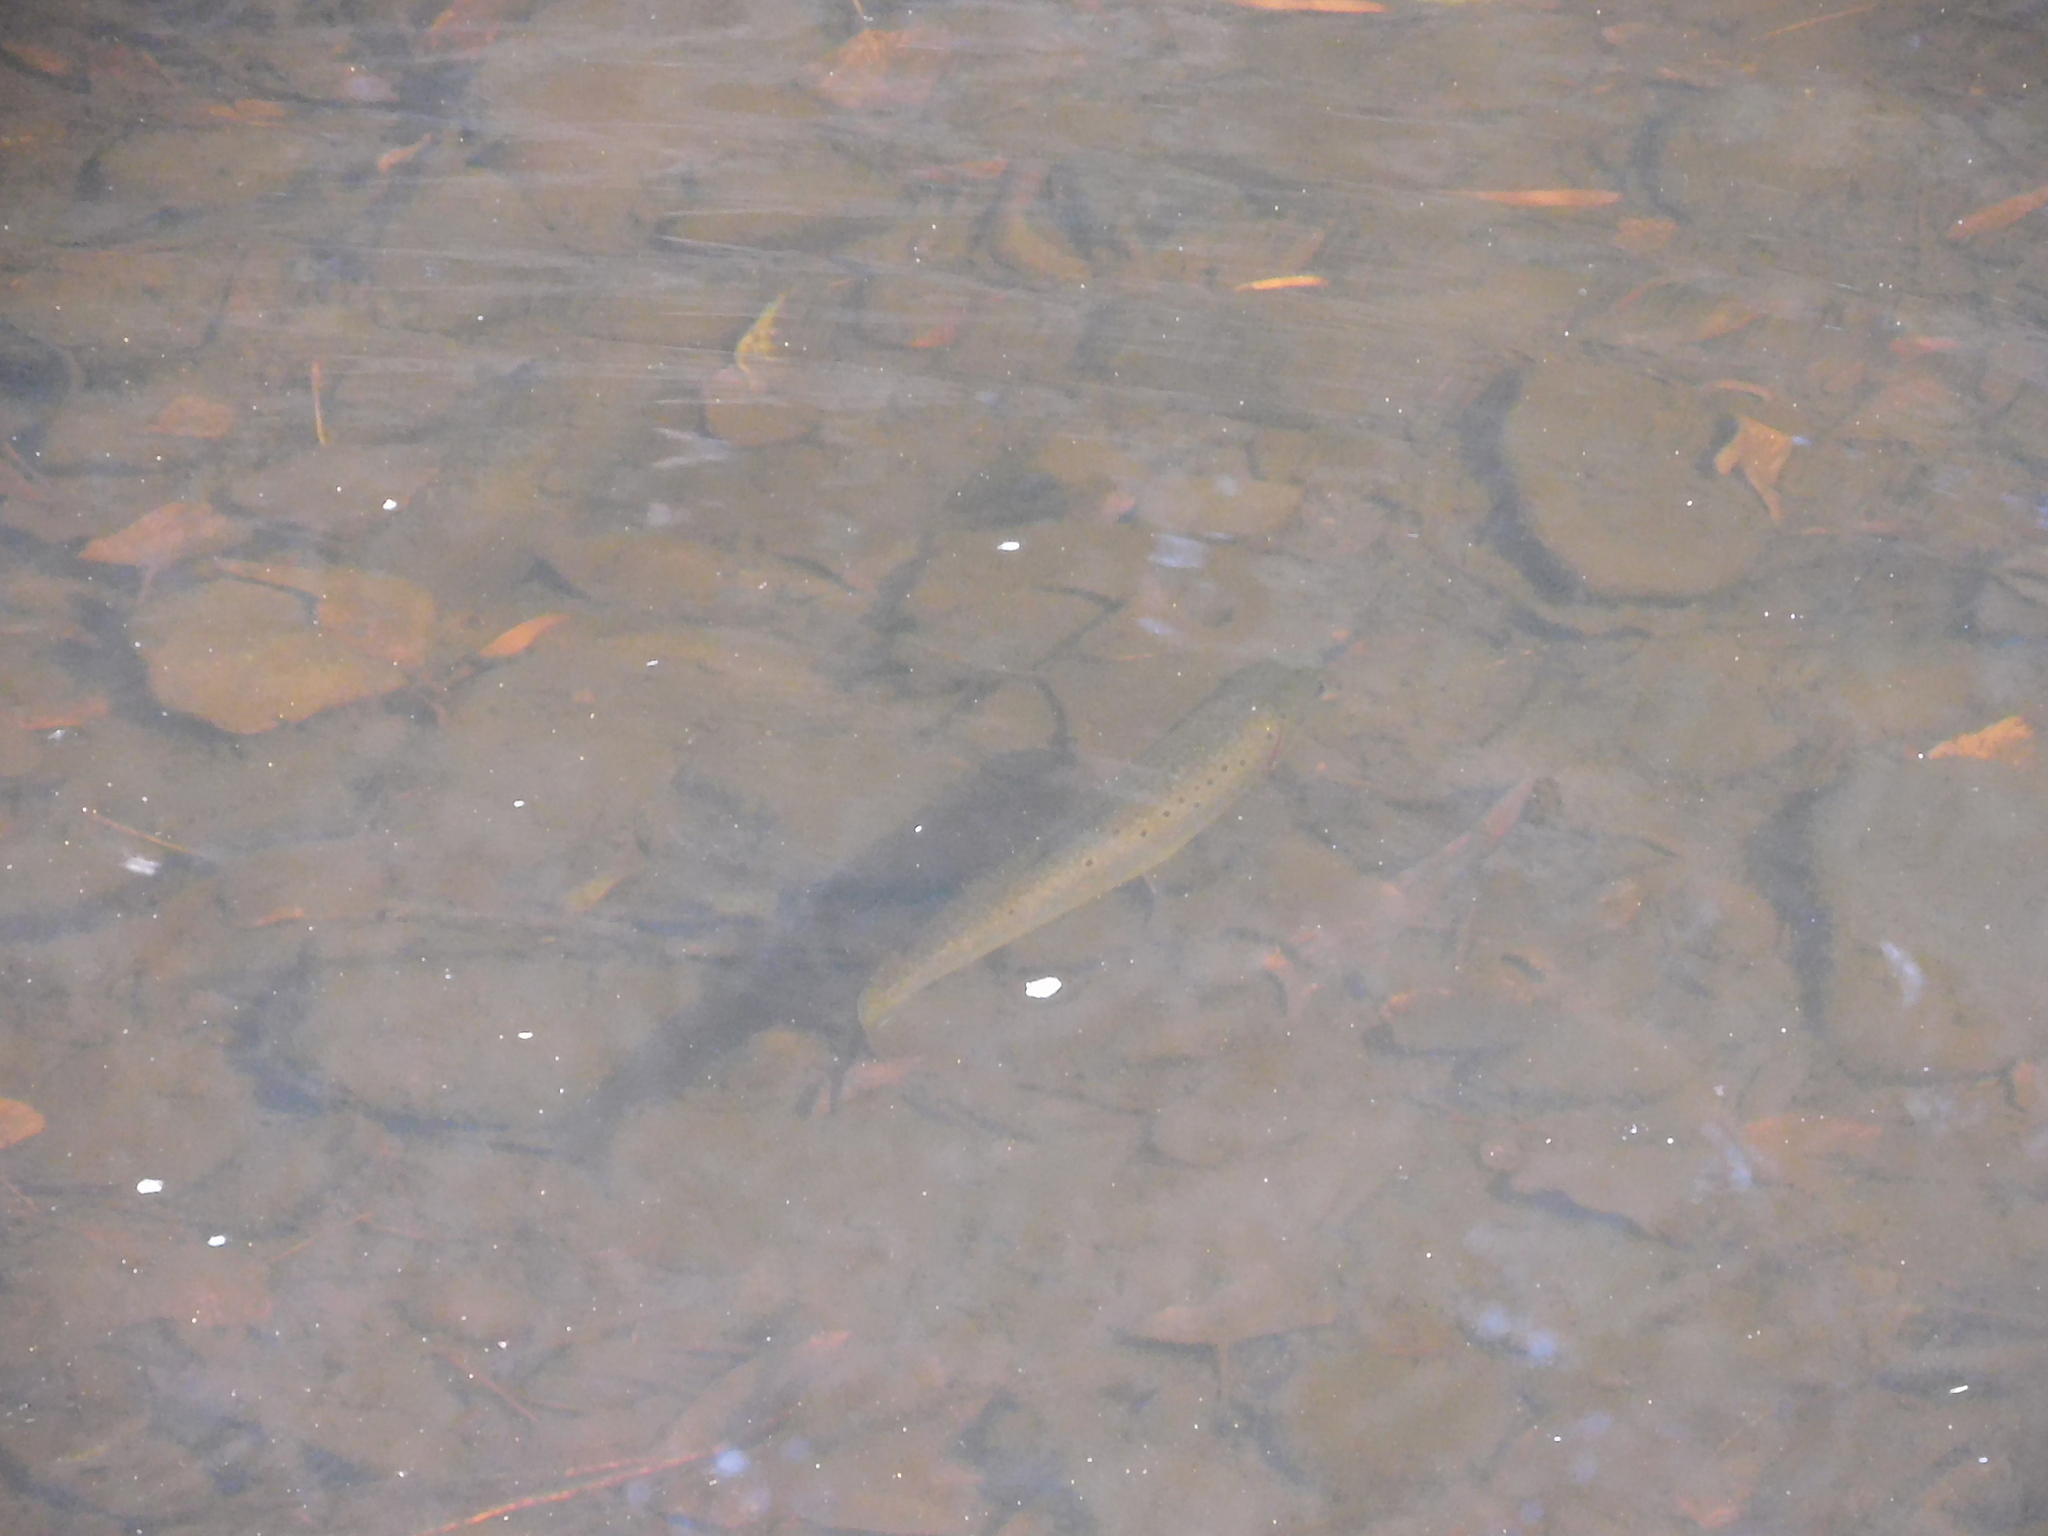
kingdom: Animalia
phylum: Chordata
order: Salmoniformes
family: Salmonidae
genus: Salmo
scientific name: Salmo trutta
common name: Brown trout
